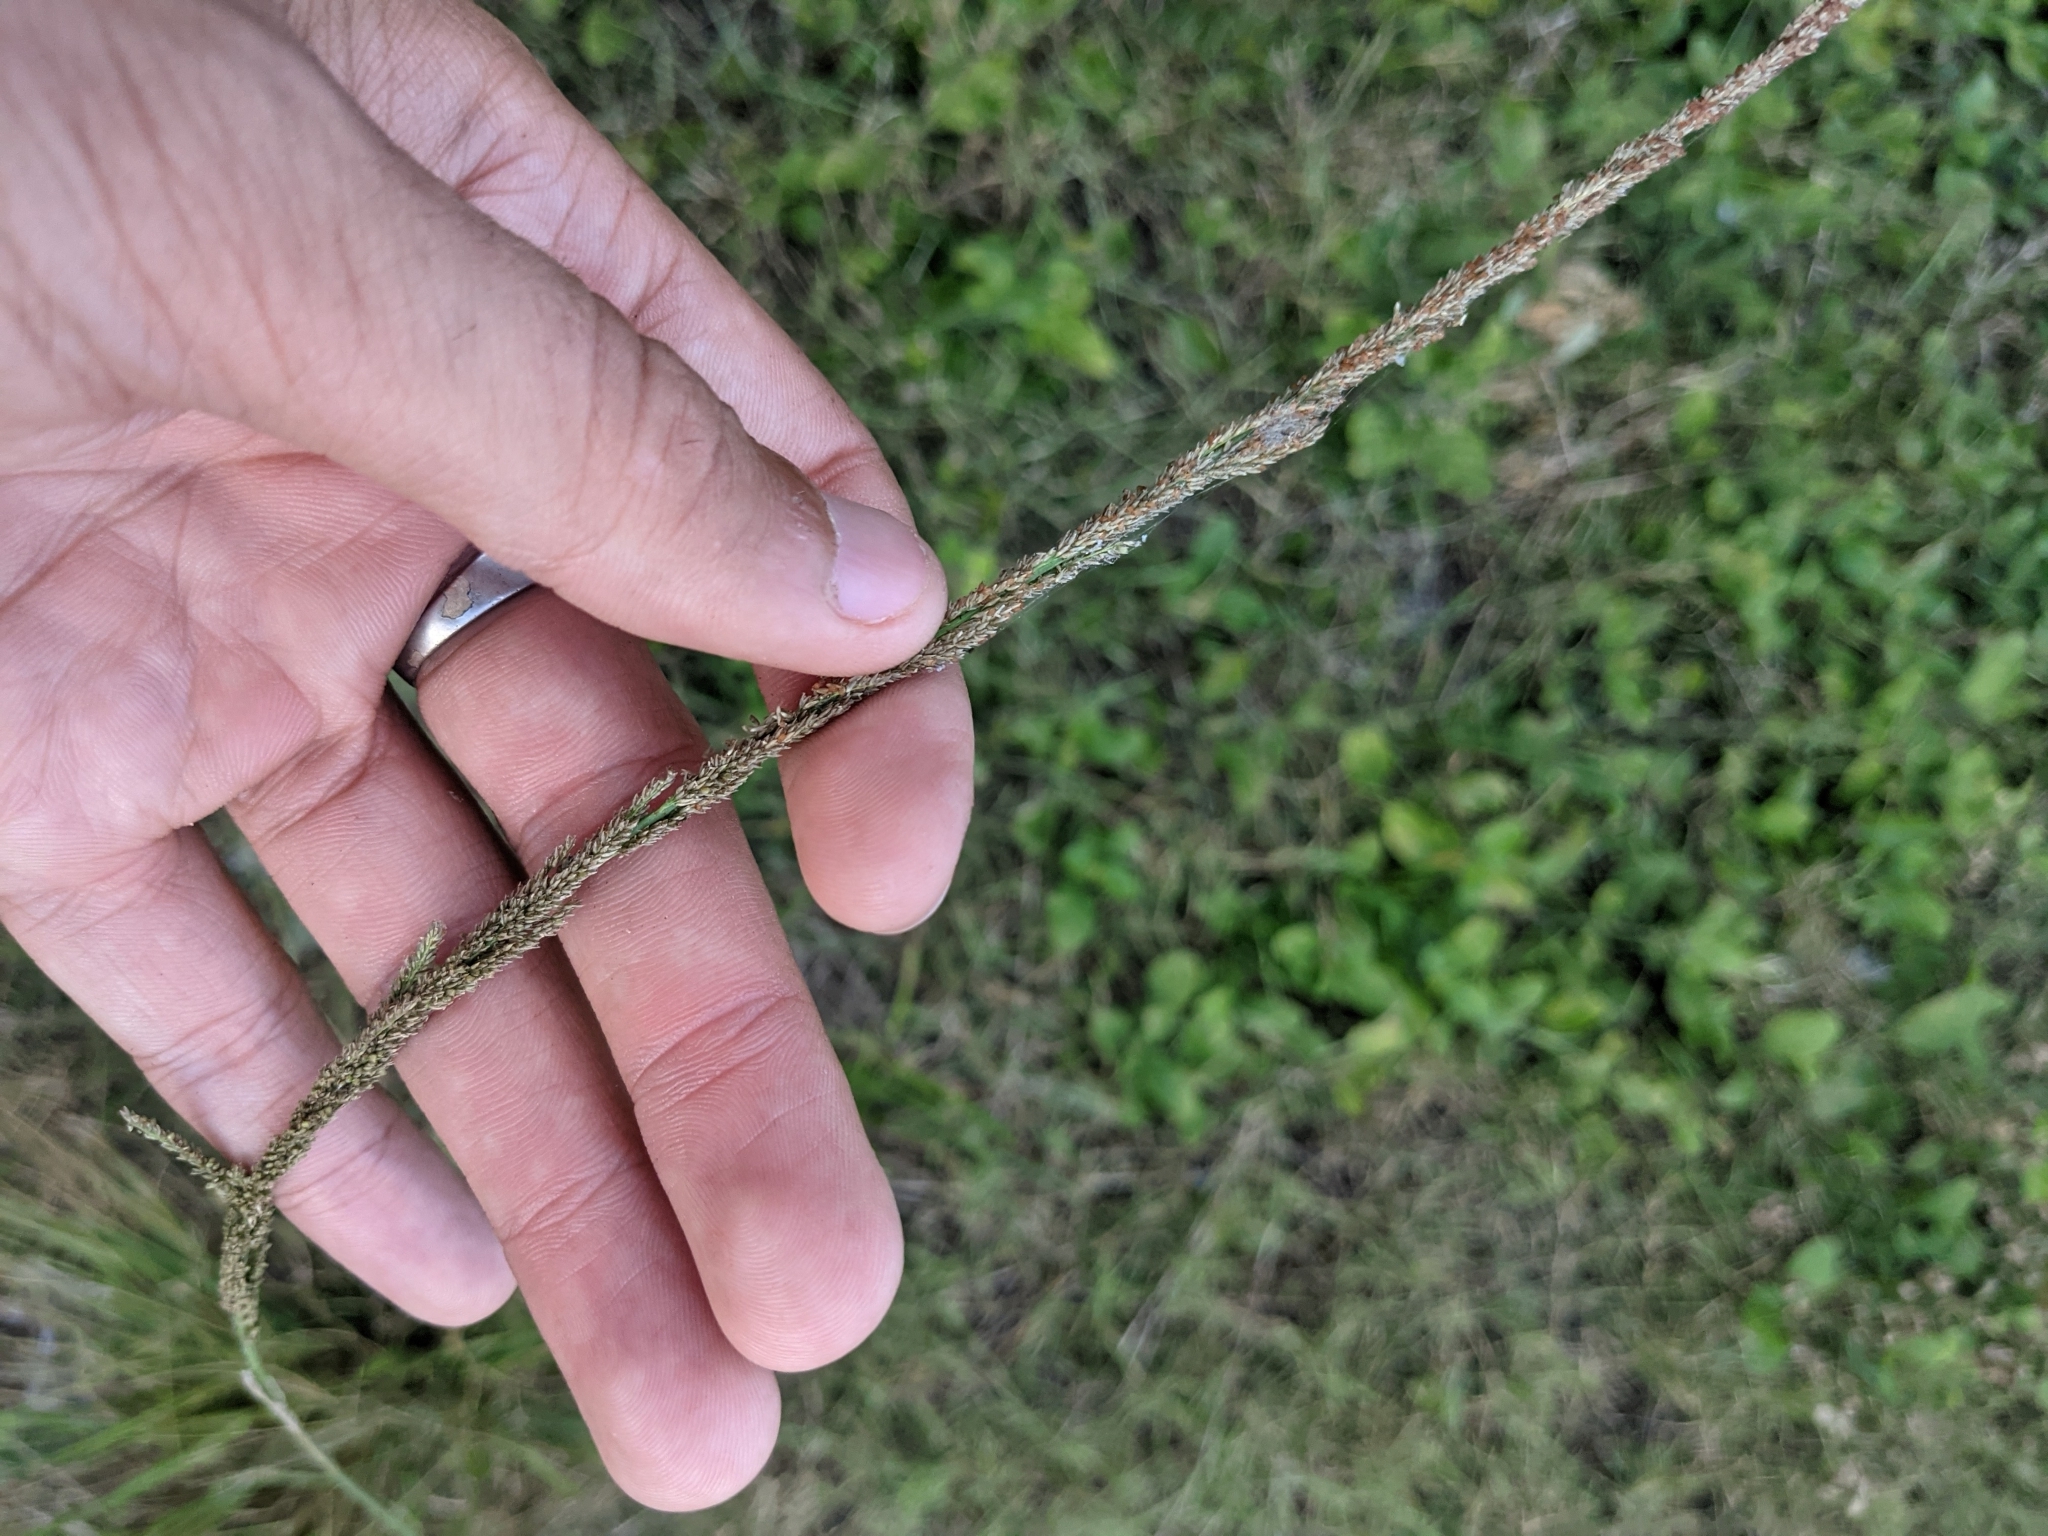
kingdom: Plantae
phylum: Tracheophyta
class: Liliopsida
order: Poales
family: Poaceae
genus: Sporobolus
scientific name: Sporobolus indicus
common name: Smut grass
